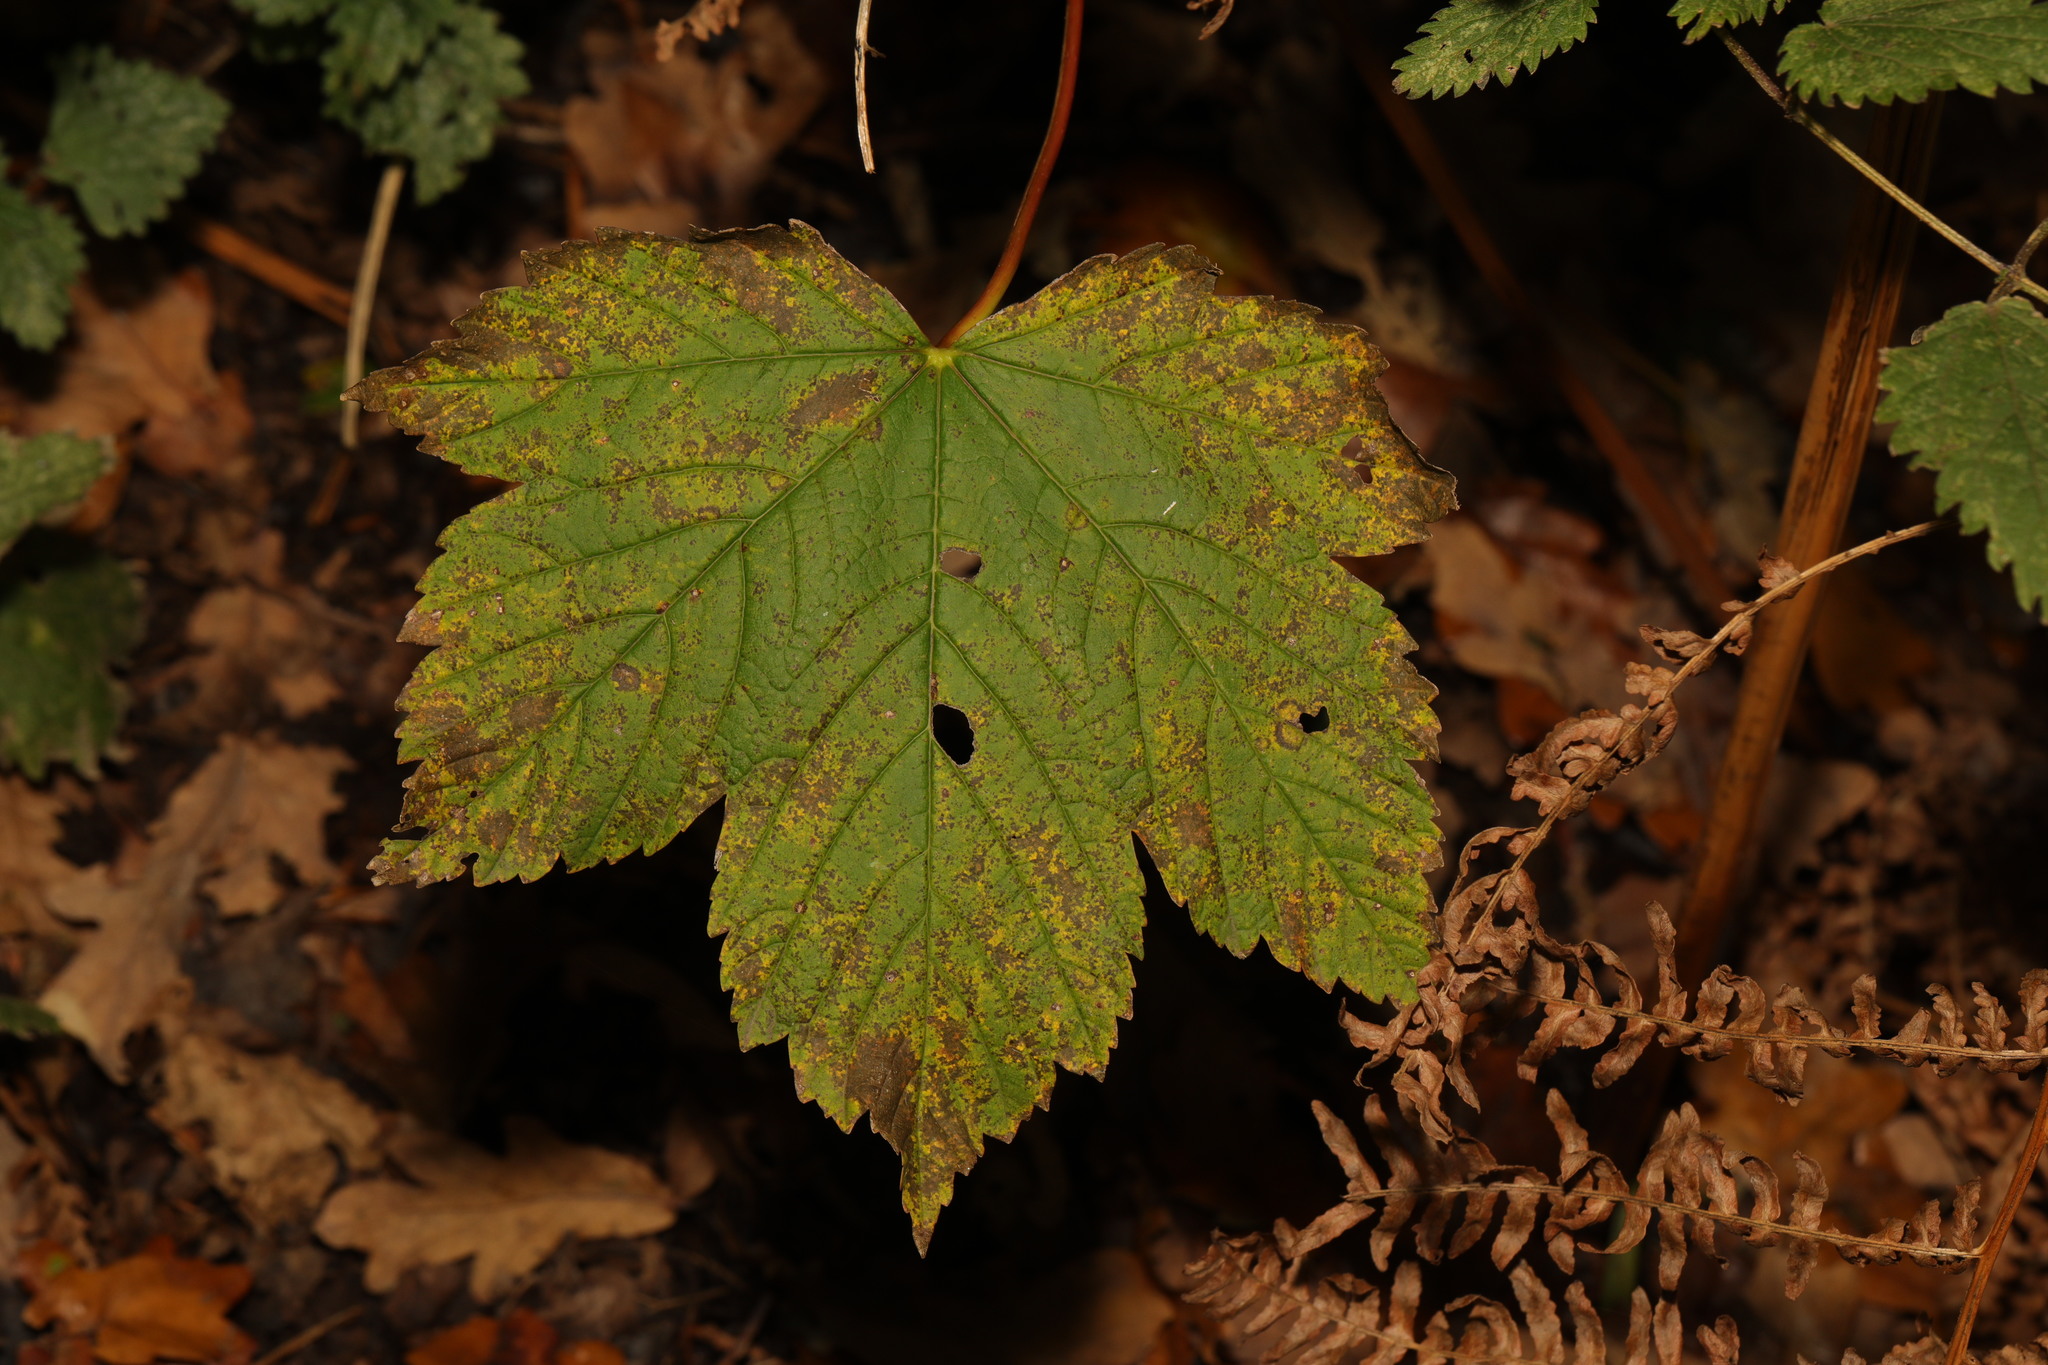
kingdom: Plantae
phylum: Tracheophyta
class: Magnoliopsida
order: Sapindales
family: Sapindaceae
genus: Acer
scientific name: Acer pseudoplatanus
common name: Sycamore
